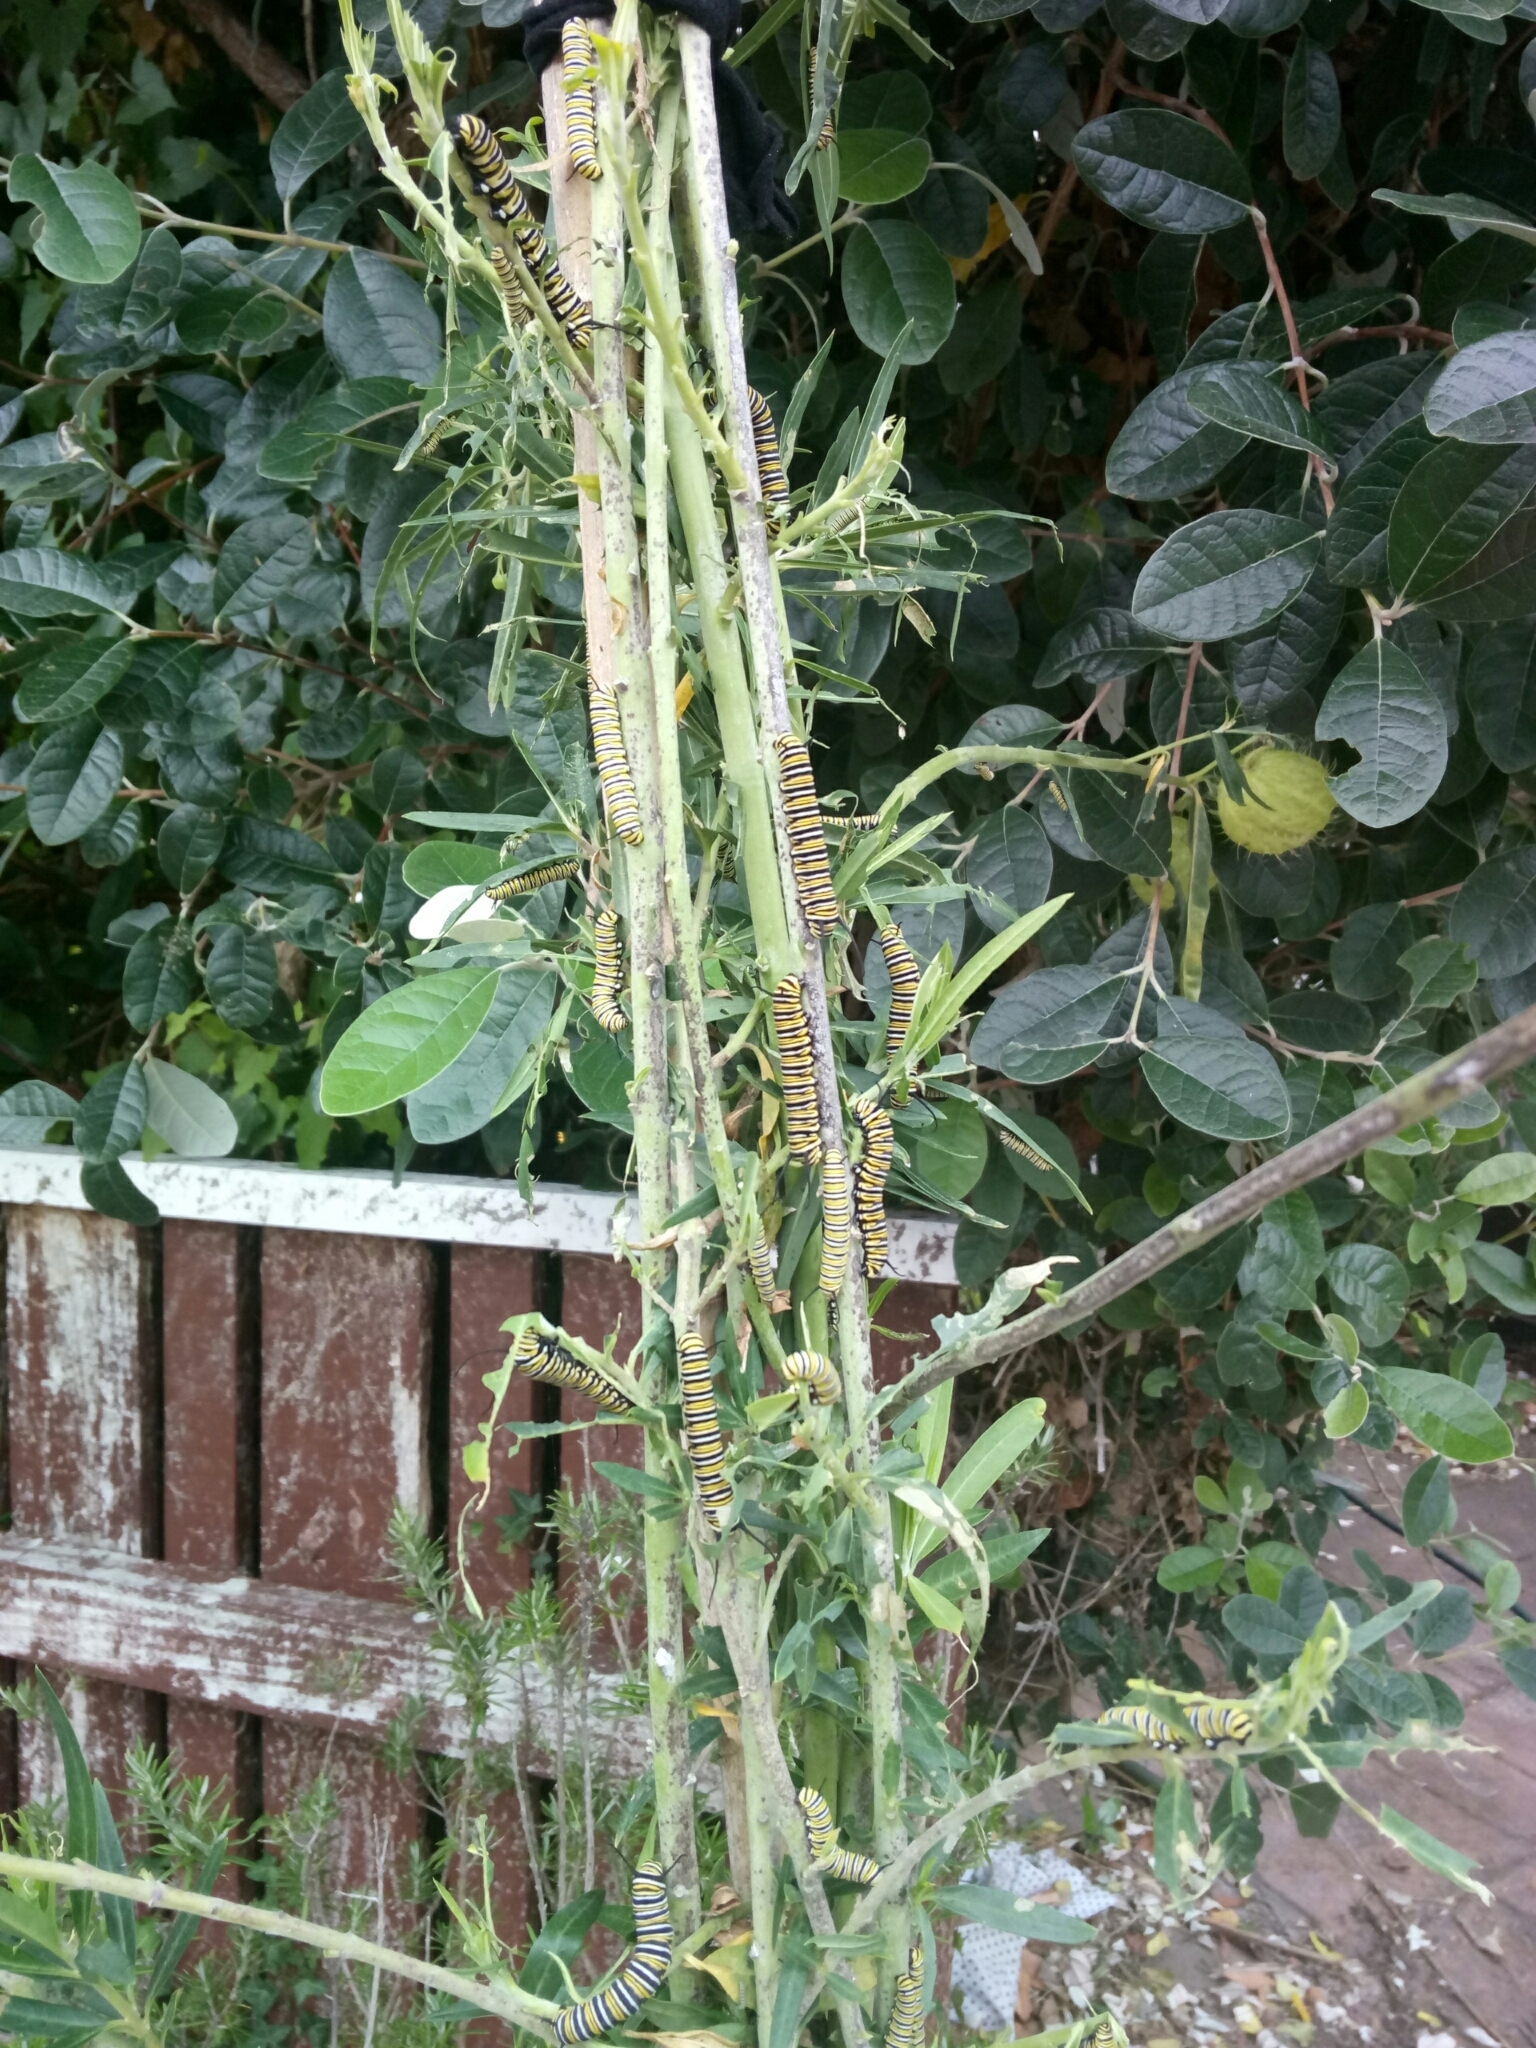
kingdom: Animalia
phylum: Arthropoda
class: Insecta
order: Lepidoptera
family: Nymphalidae
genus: Danaus
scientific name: Danaus plexippus
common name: Monarch
